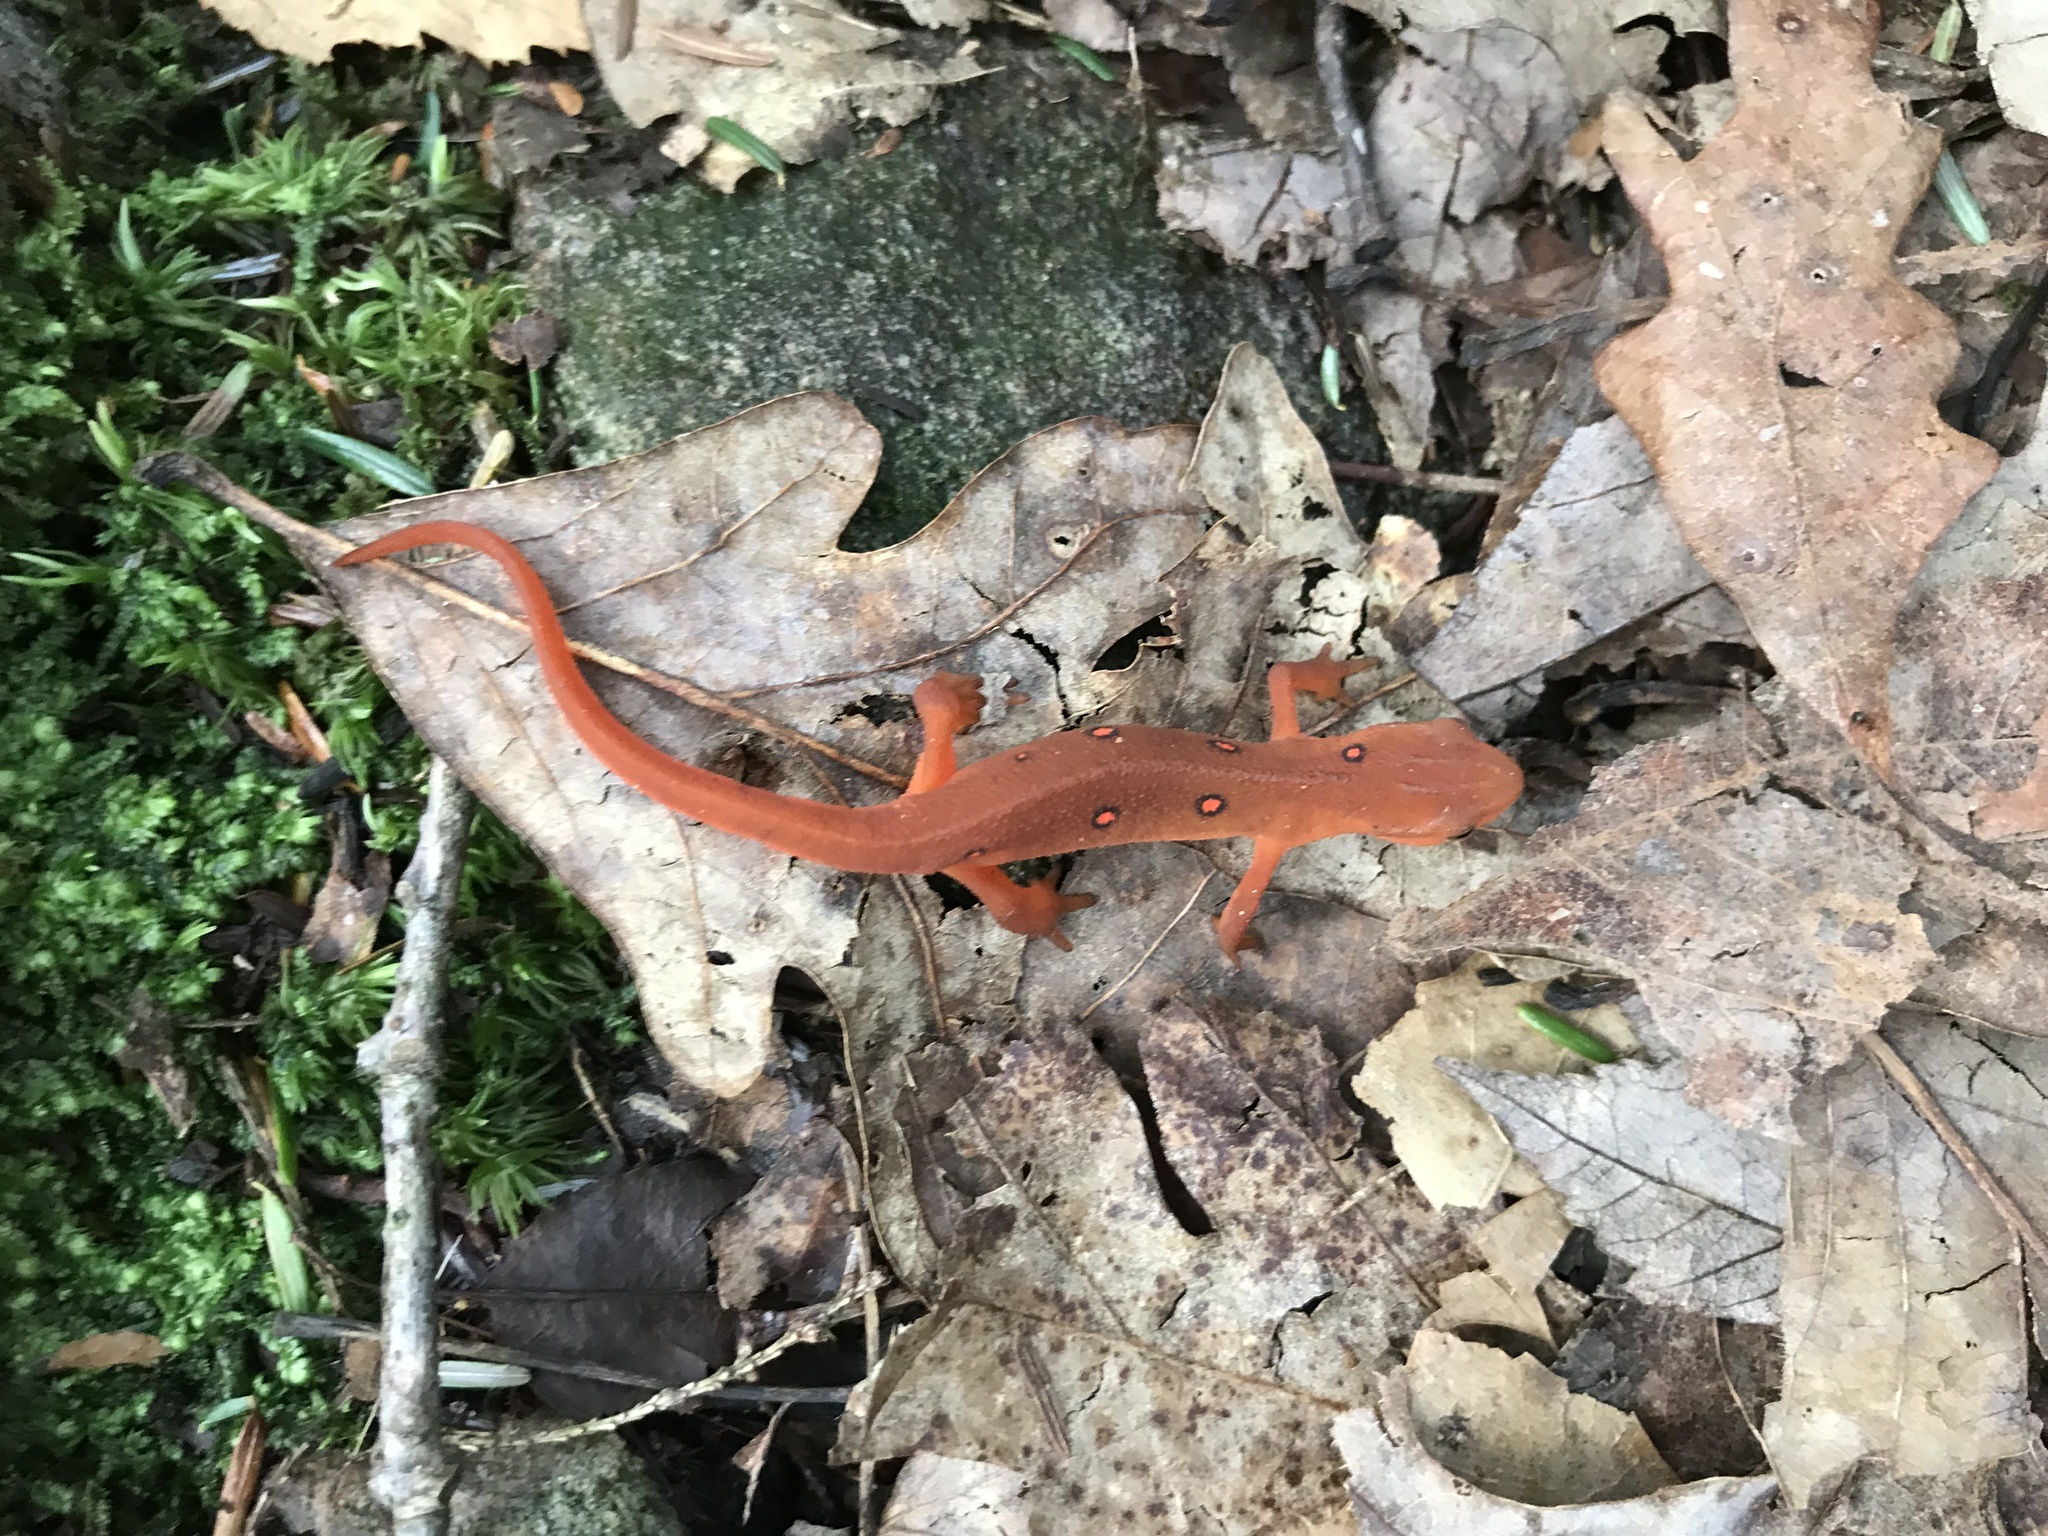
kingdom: Animalia
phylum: Chordata
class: Amphibia
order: Caudata
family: Salamandridae
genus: Notophthalmus
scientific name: Notophthalmus viridescens
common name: Eastern newt
